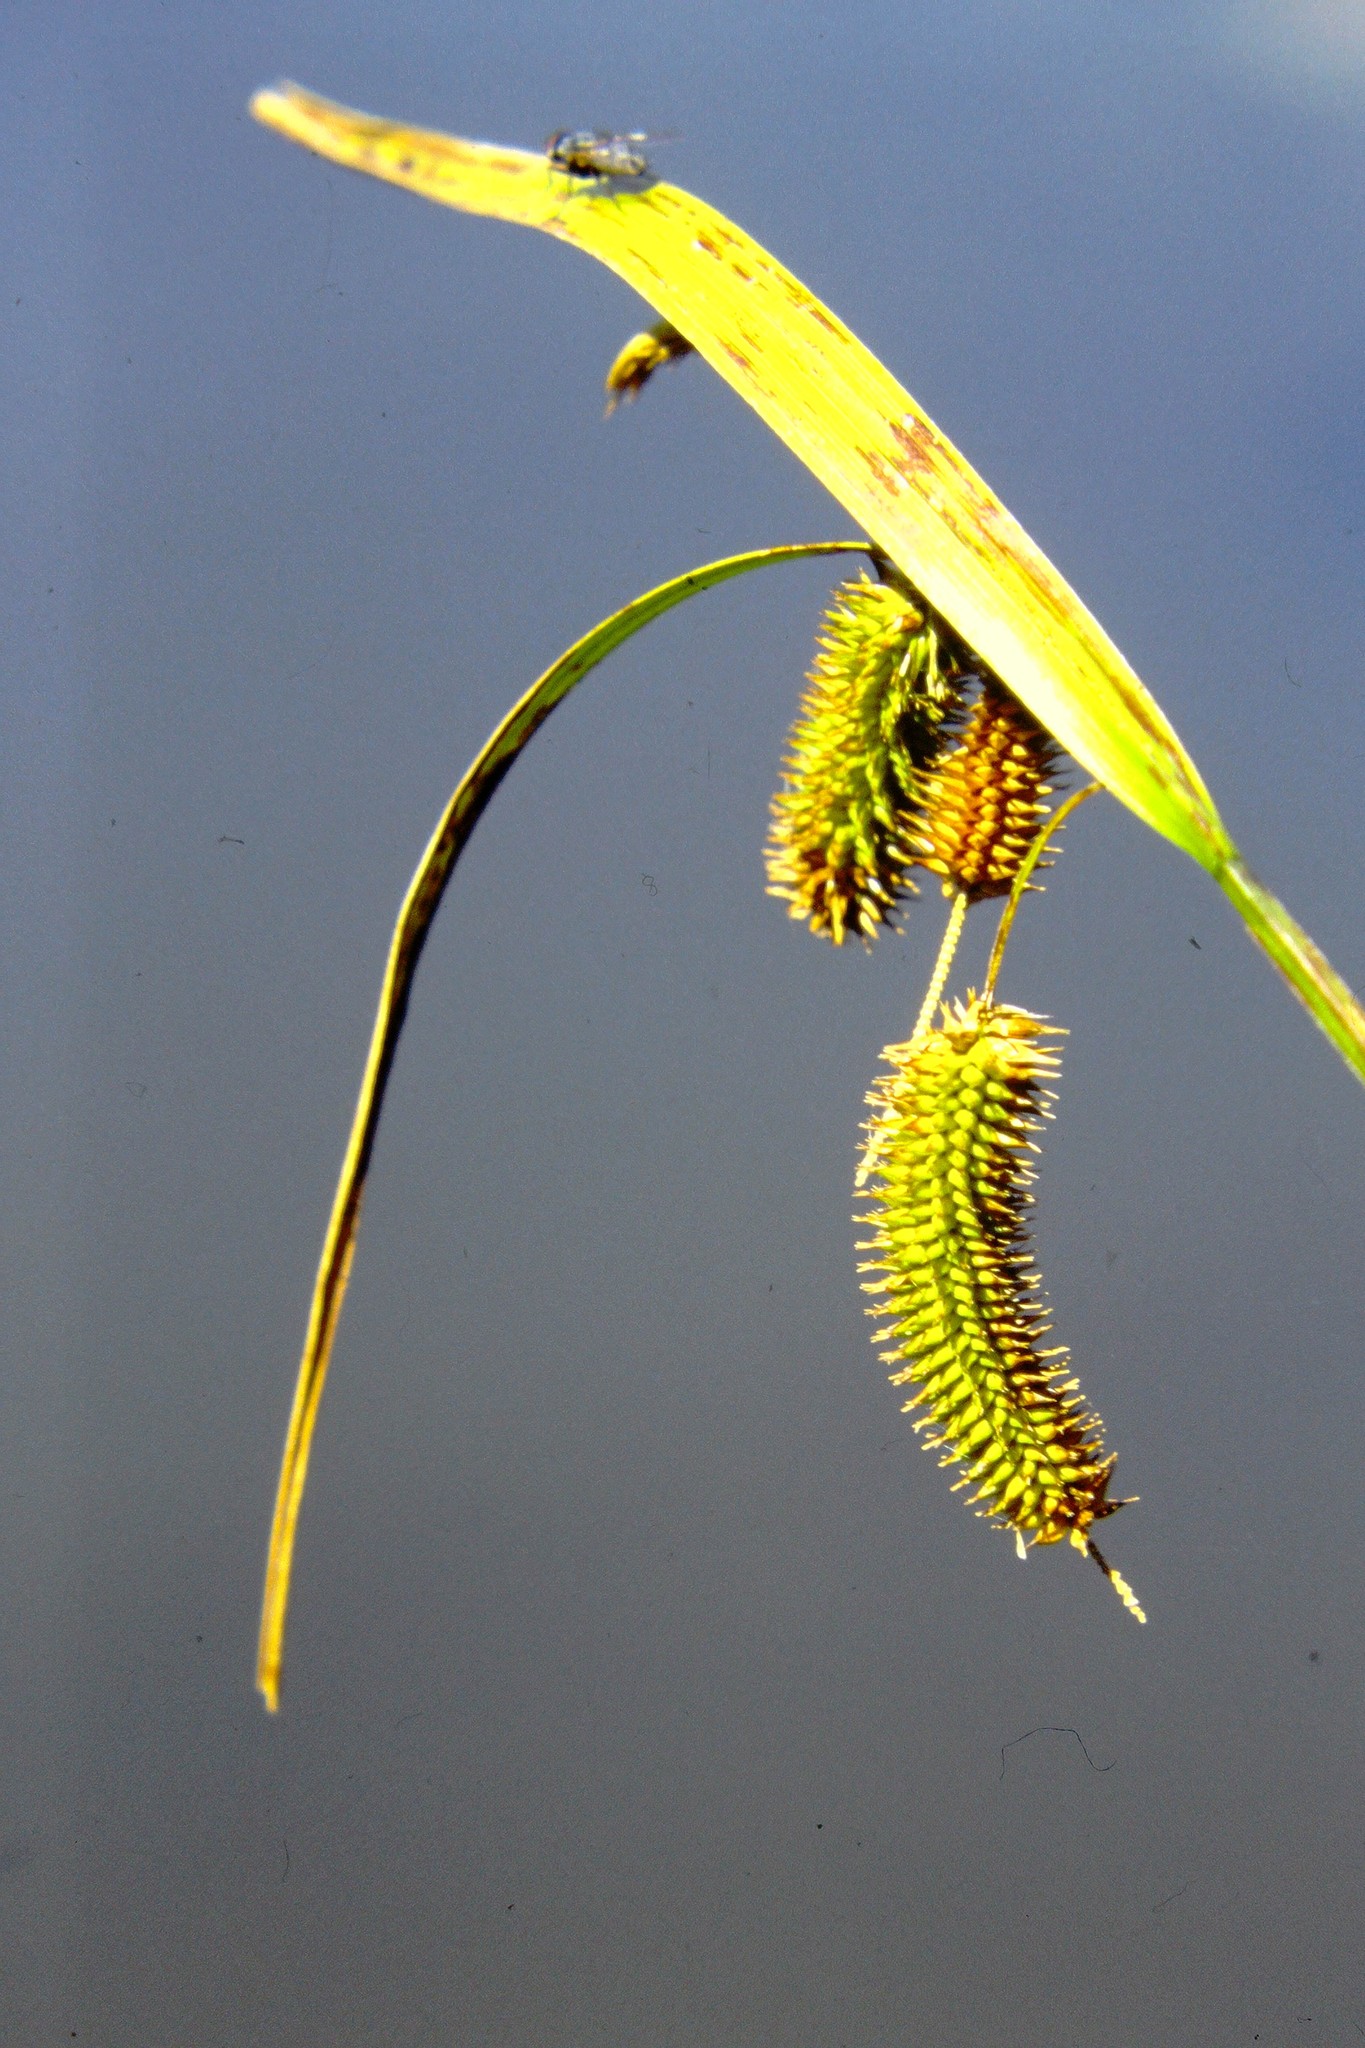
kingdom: Plantae
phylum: Tracheophyta
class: Liliopsida
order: Poales
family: Cyperaceae
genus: Carex
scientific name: Carex pseudocyperus
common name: Cyperus sedge
